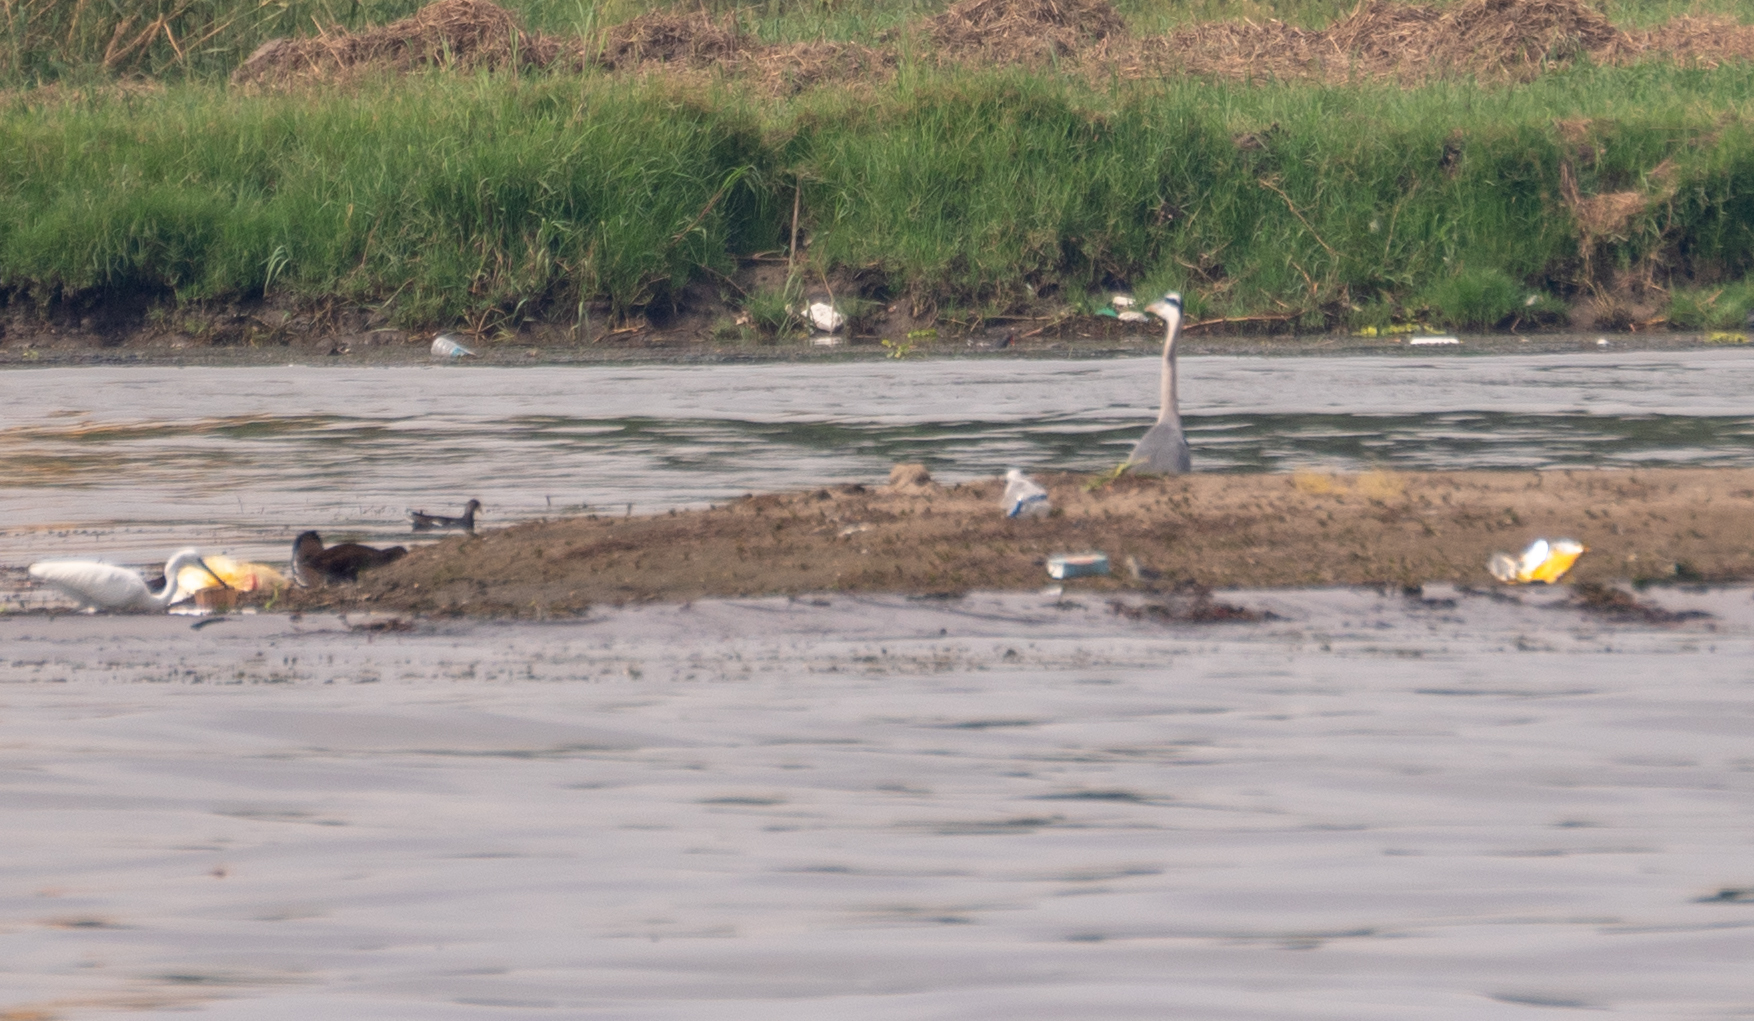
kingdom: Animalia
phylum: Chordata
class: Aves
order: Pelecaniformes
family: Ardeidae
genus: Ardea
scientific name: Ardea cinerea
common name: Grey heron
